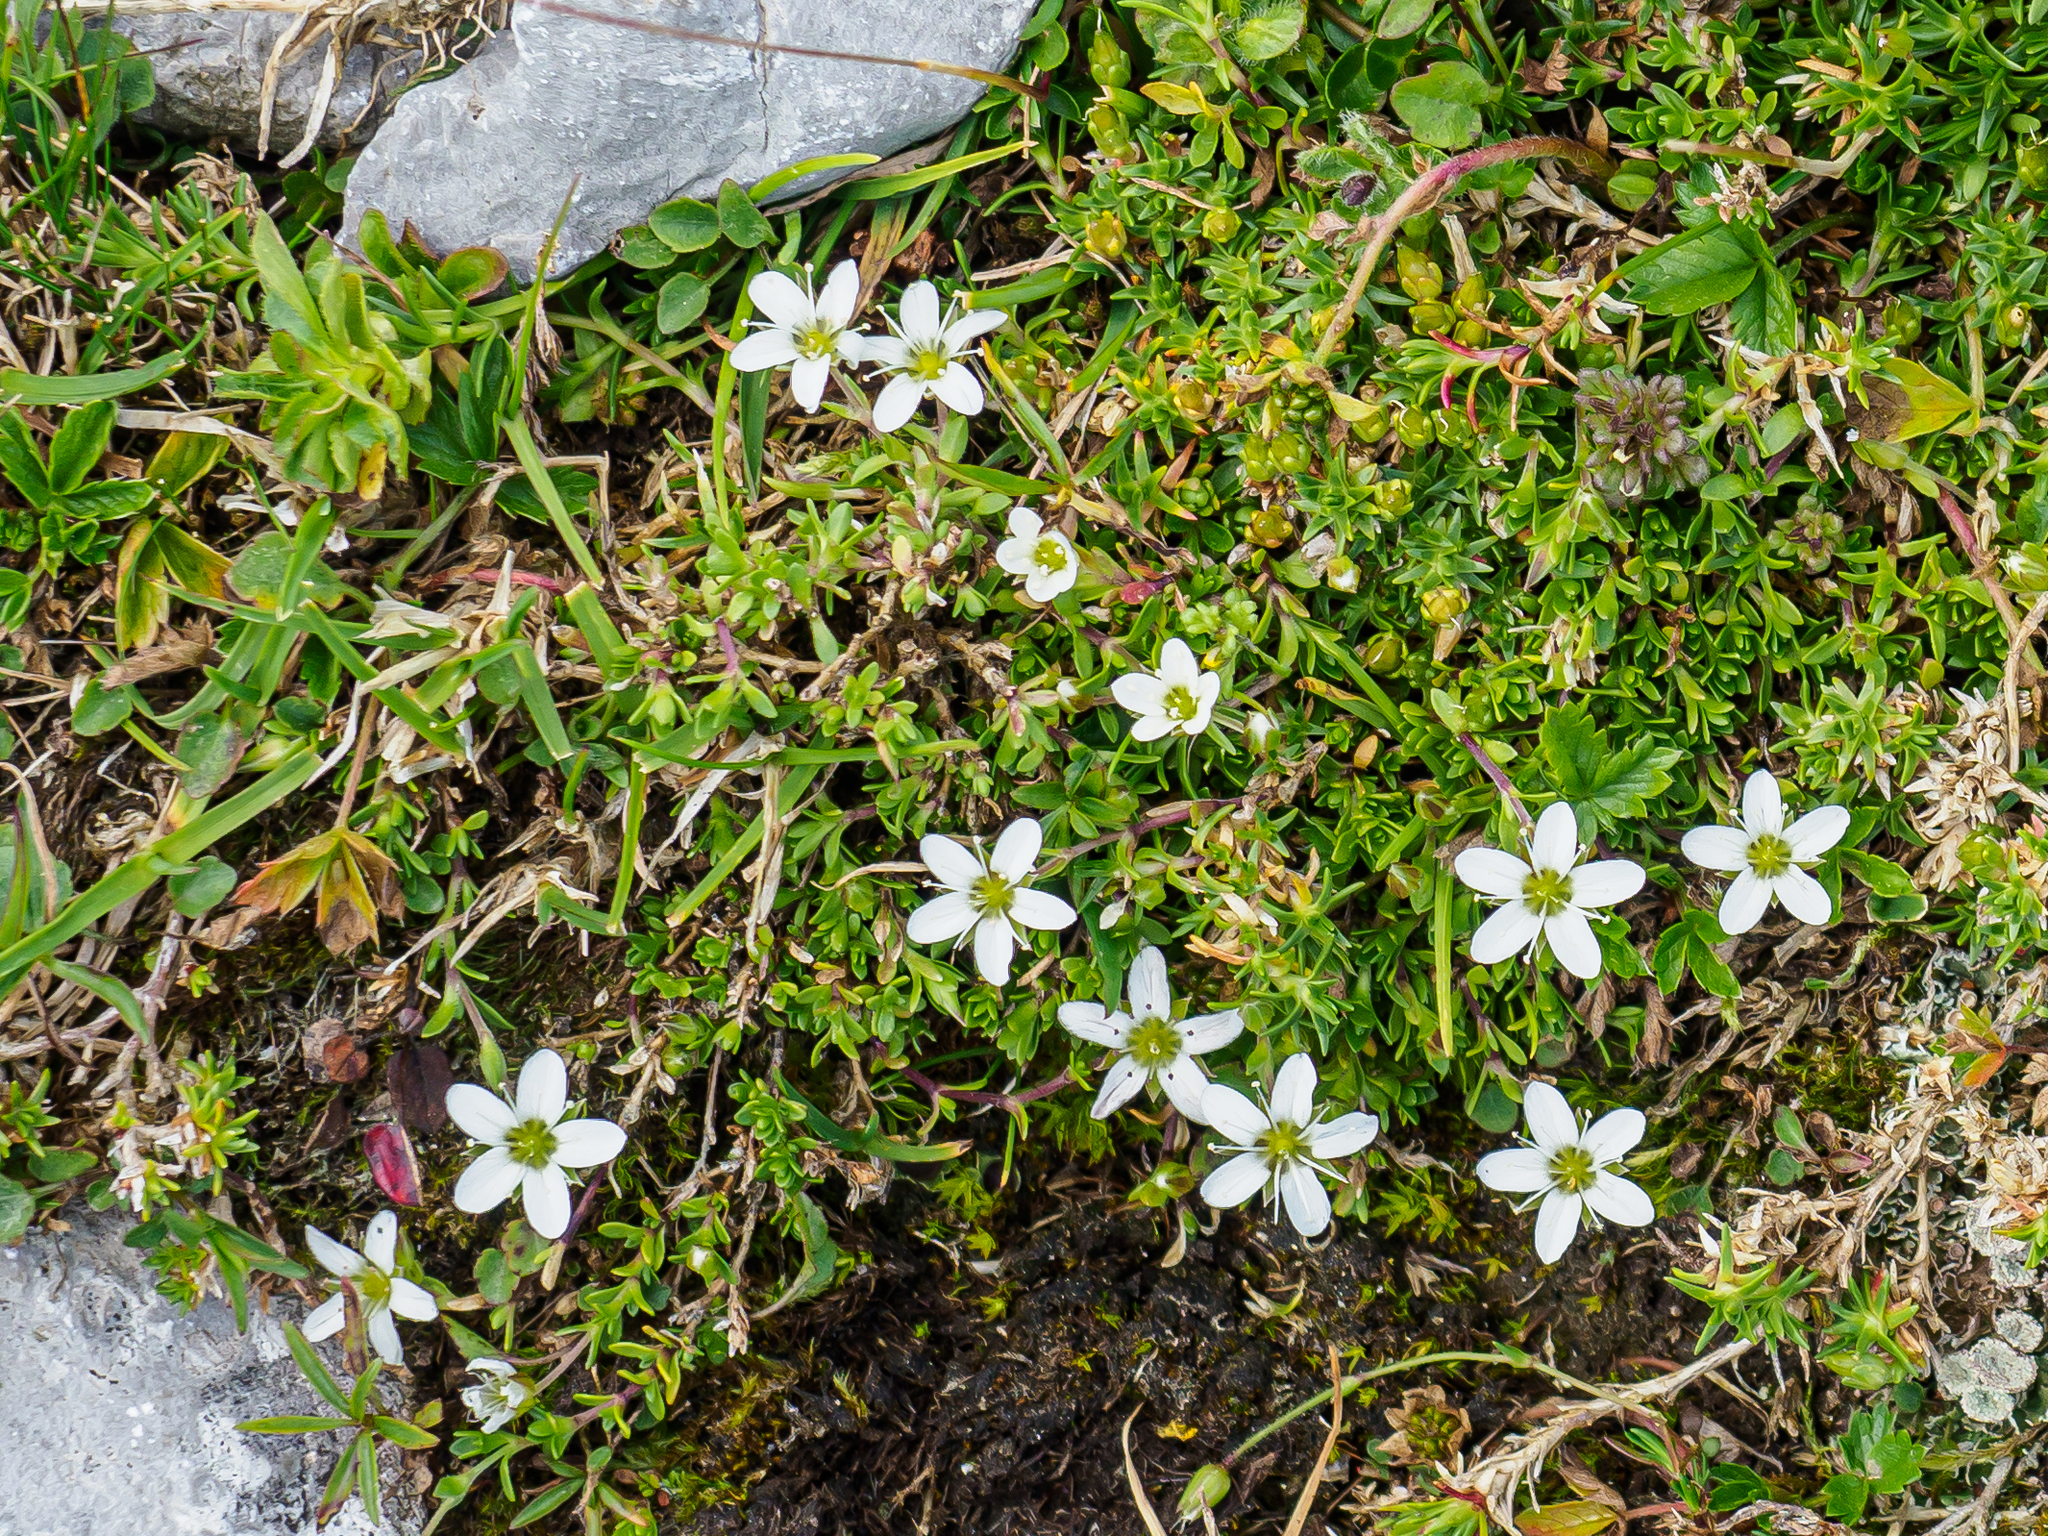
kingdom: Plantae
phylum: Tracheophyta
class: Magnoliopsida
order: Caryophyllales
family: Caryophyllaceae
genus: Moehringia
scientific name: Moehringia ciliata
